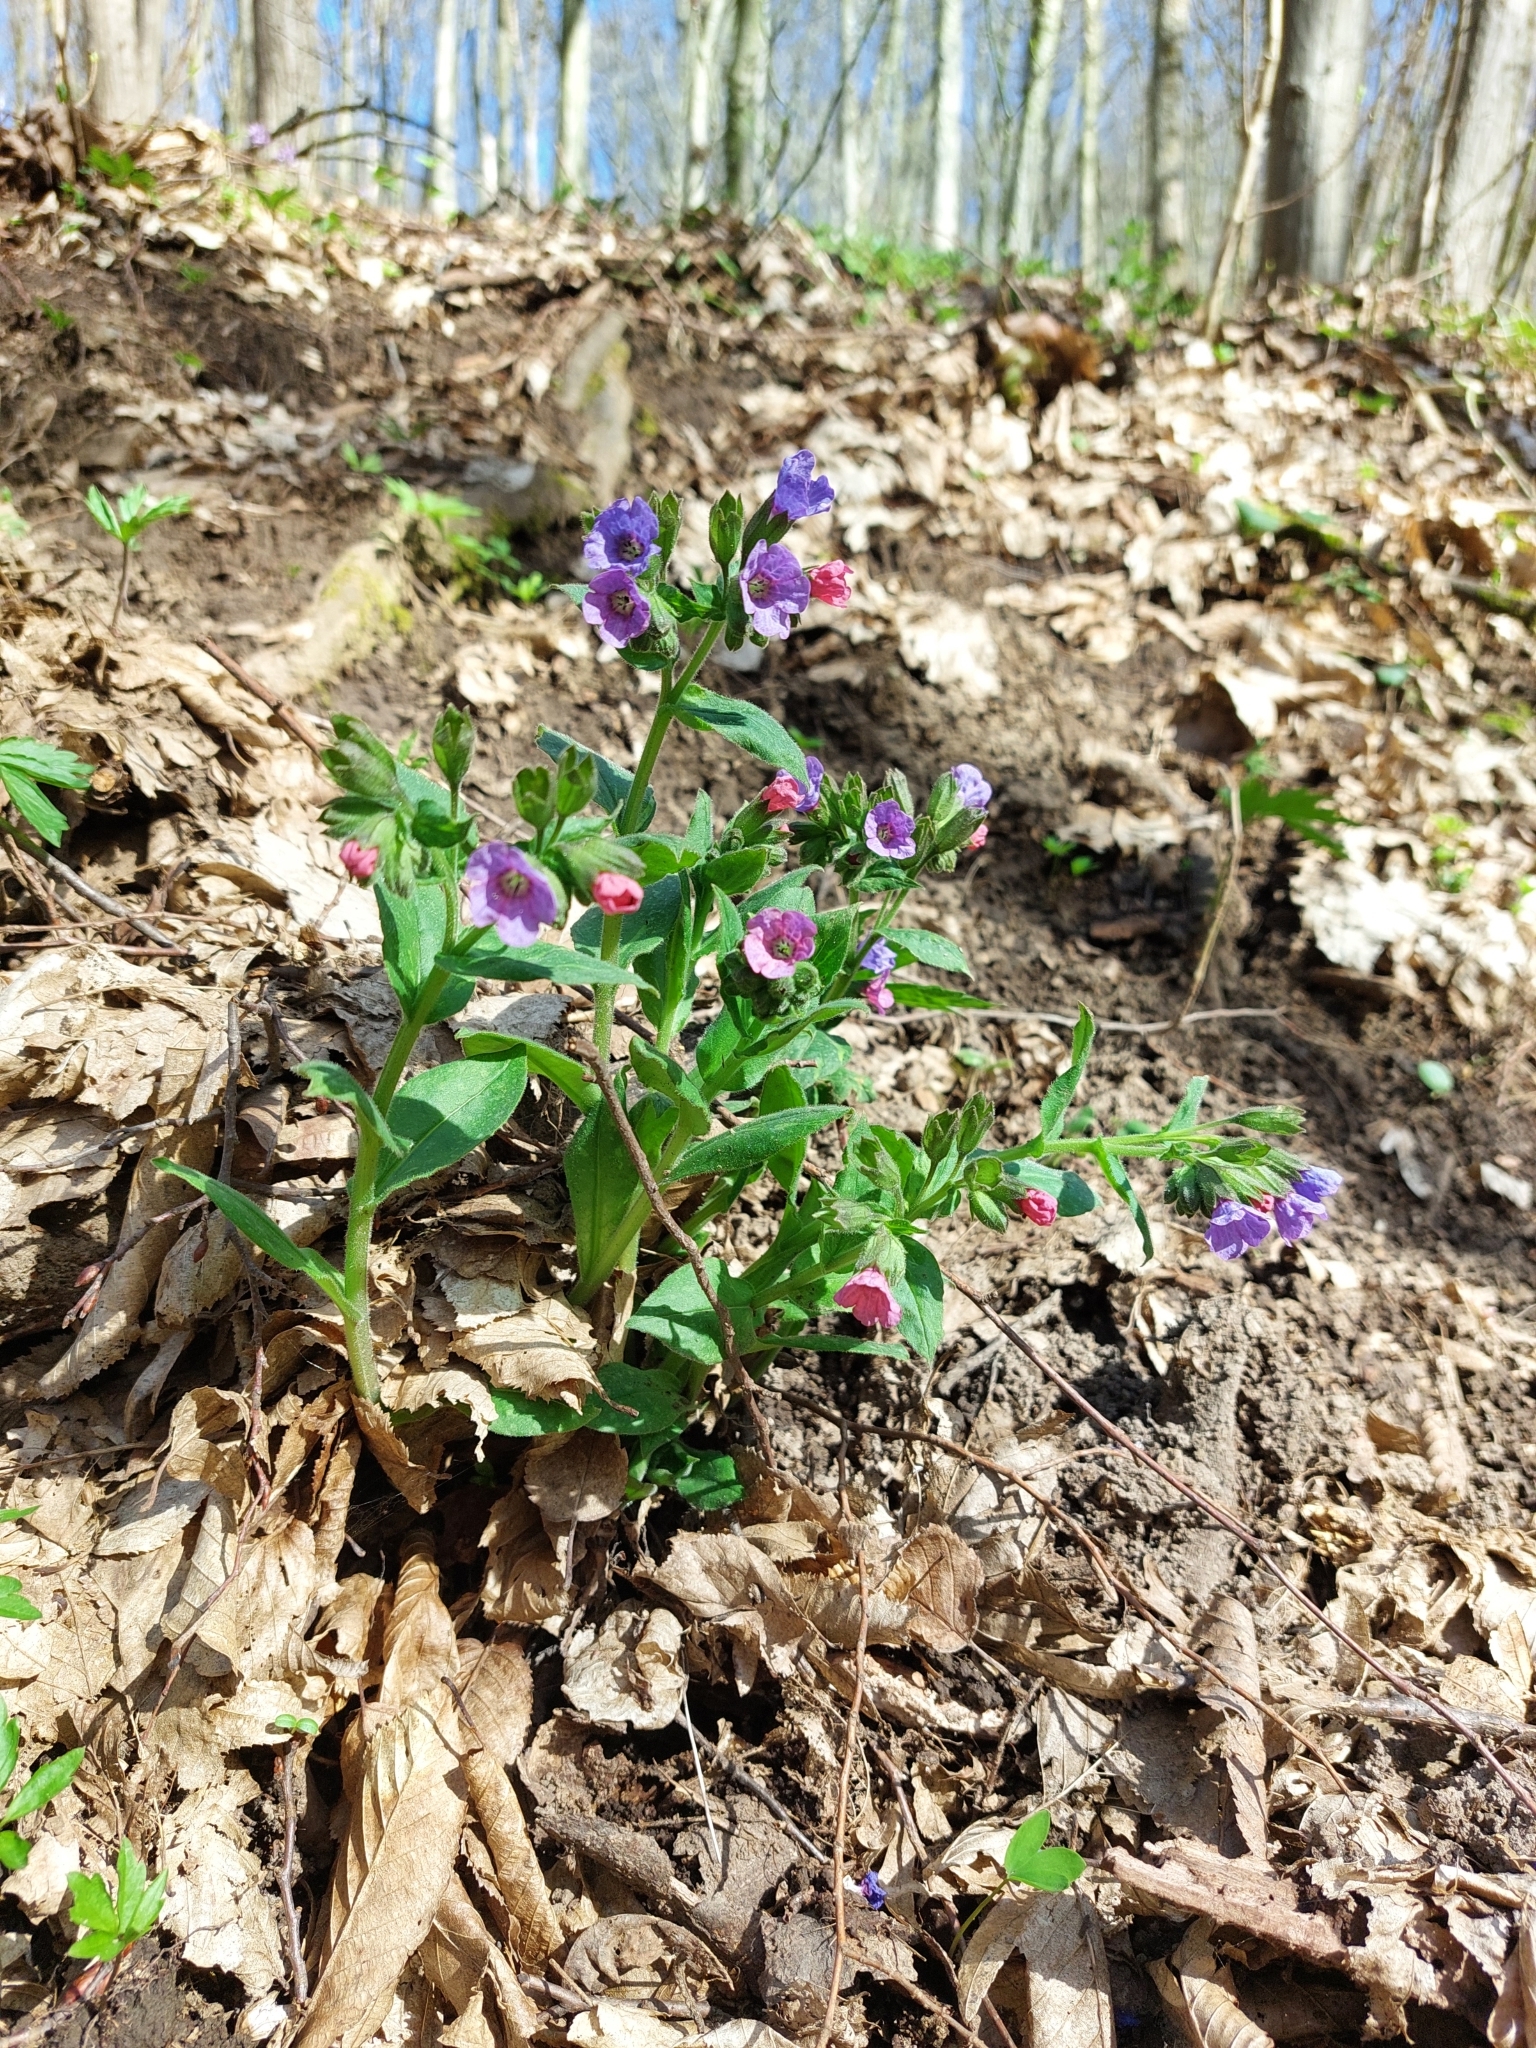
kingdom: Plantae
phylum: Tracheophyta
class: Magnoliopsida
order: Boraginales
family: Boraginaceae
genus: Pulmonaria
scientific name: Pulmonaria obscura
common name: Suffolk lungwort
